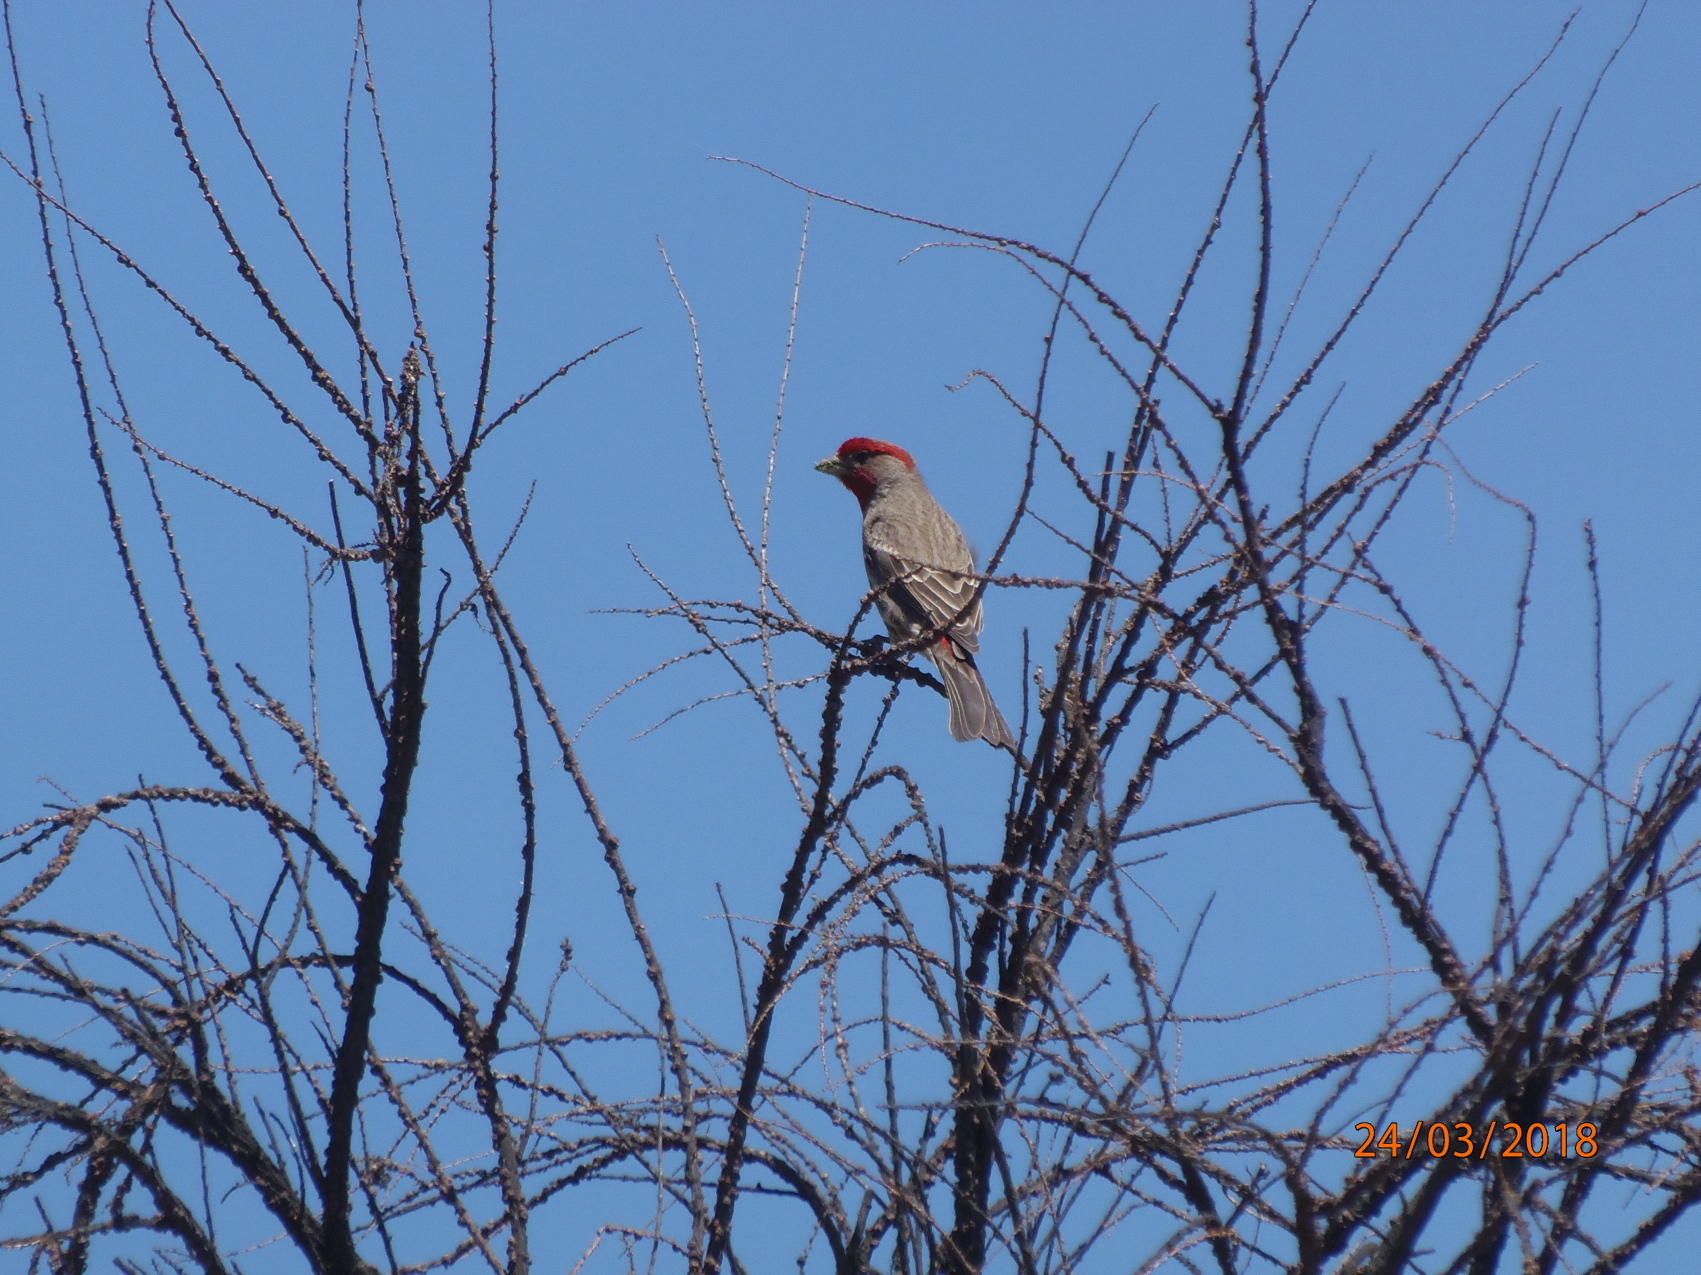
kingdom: Animalia
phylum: Chordata
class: Aves
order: Passeriformes
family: Fringillidae
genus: Haemorhous
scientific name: Haemorhous mexicanus
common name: House finch
